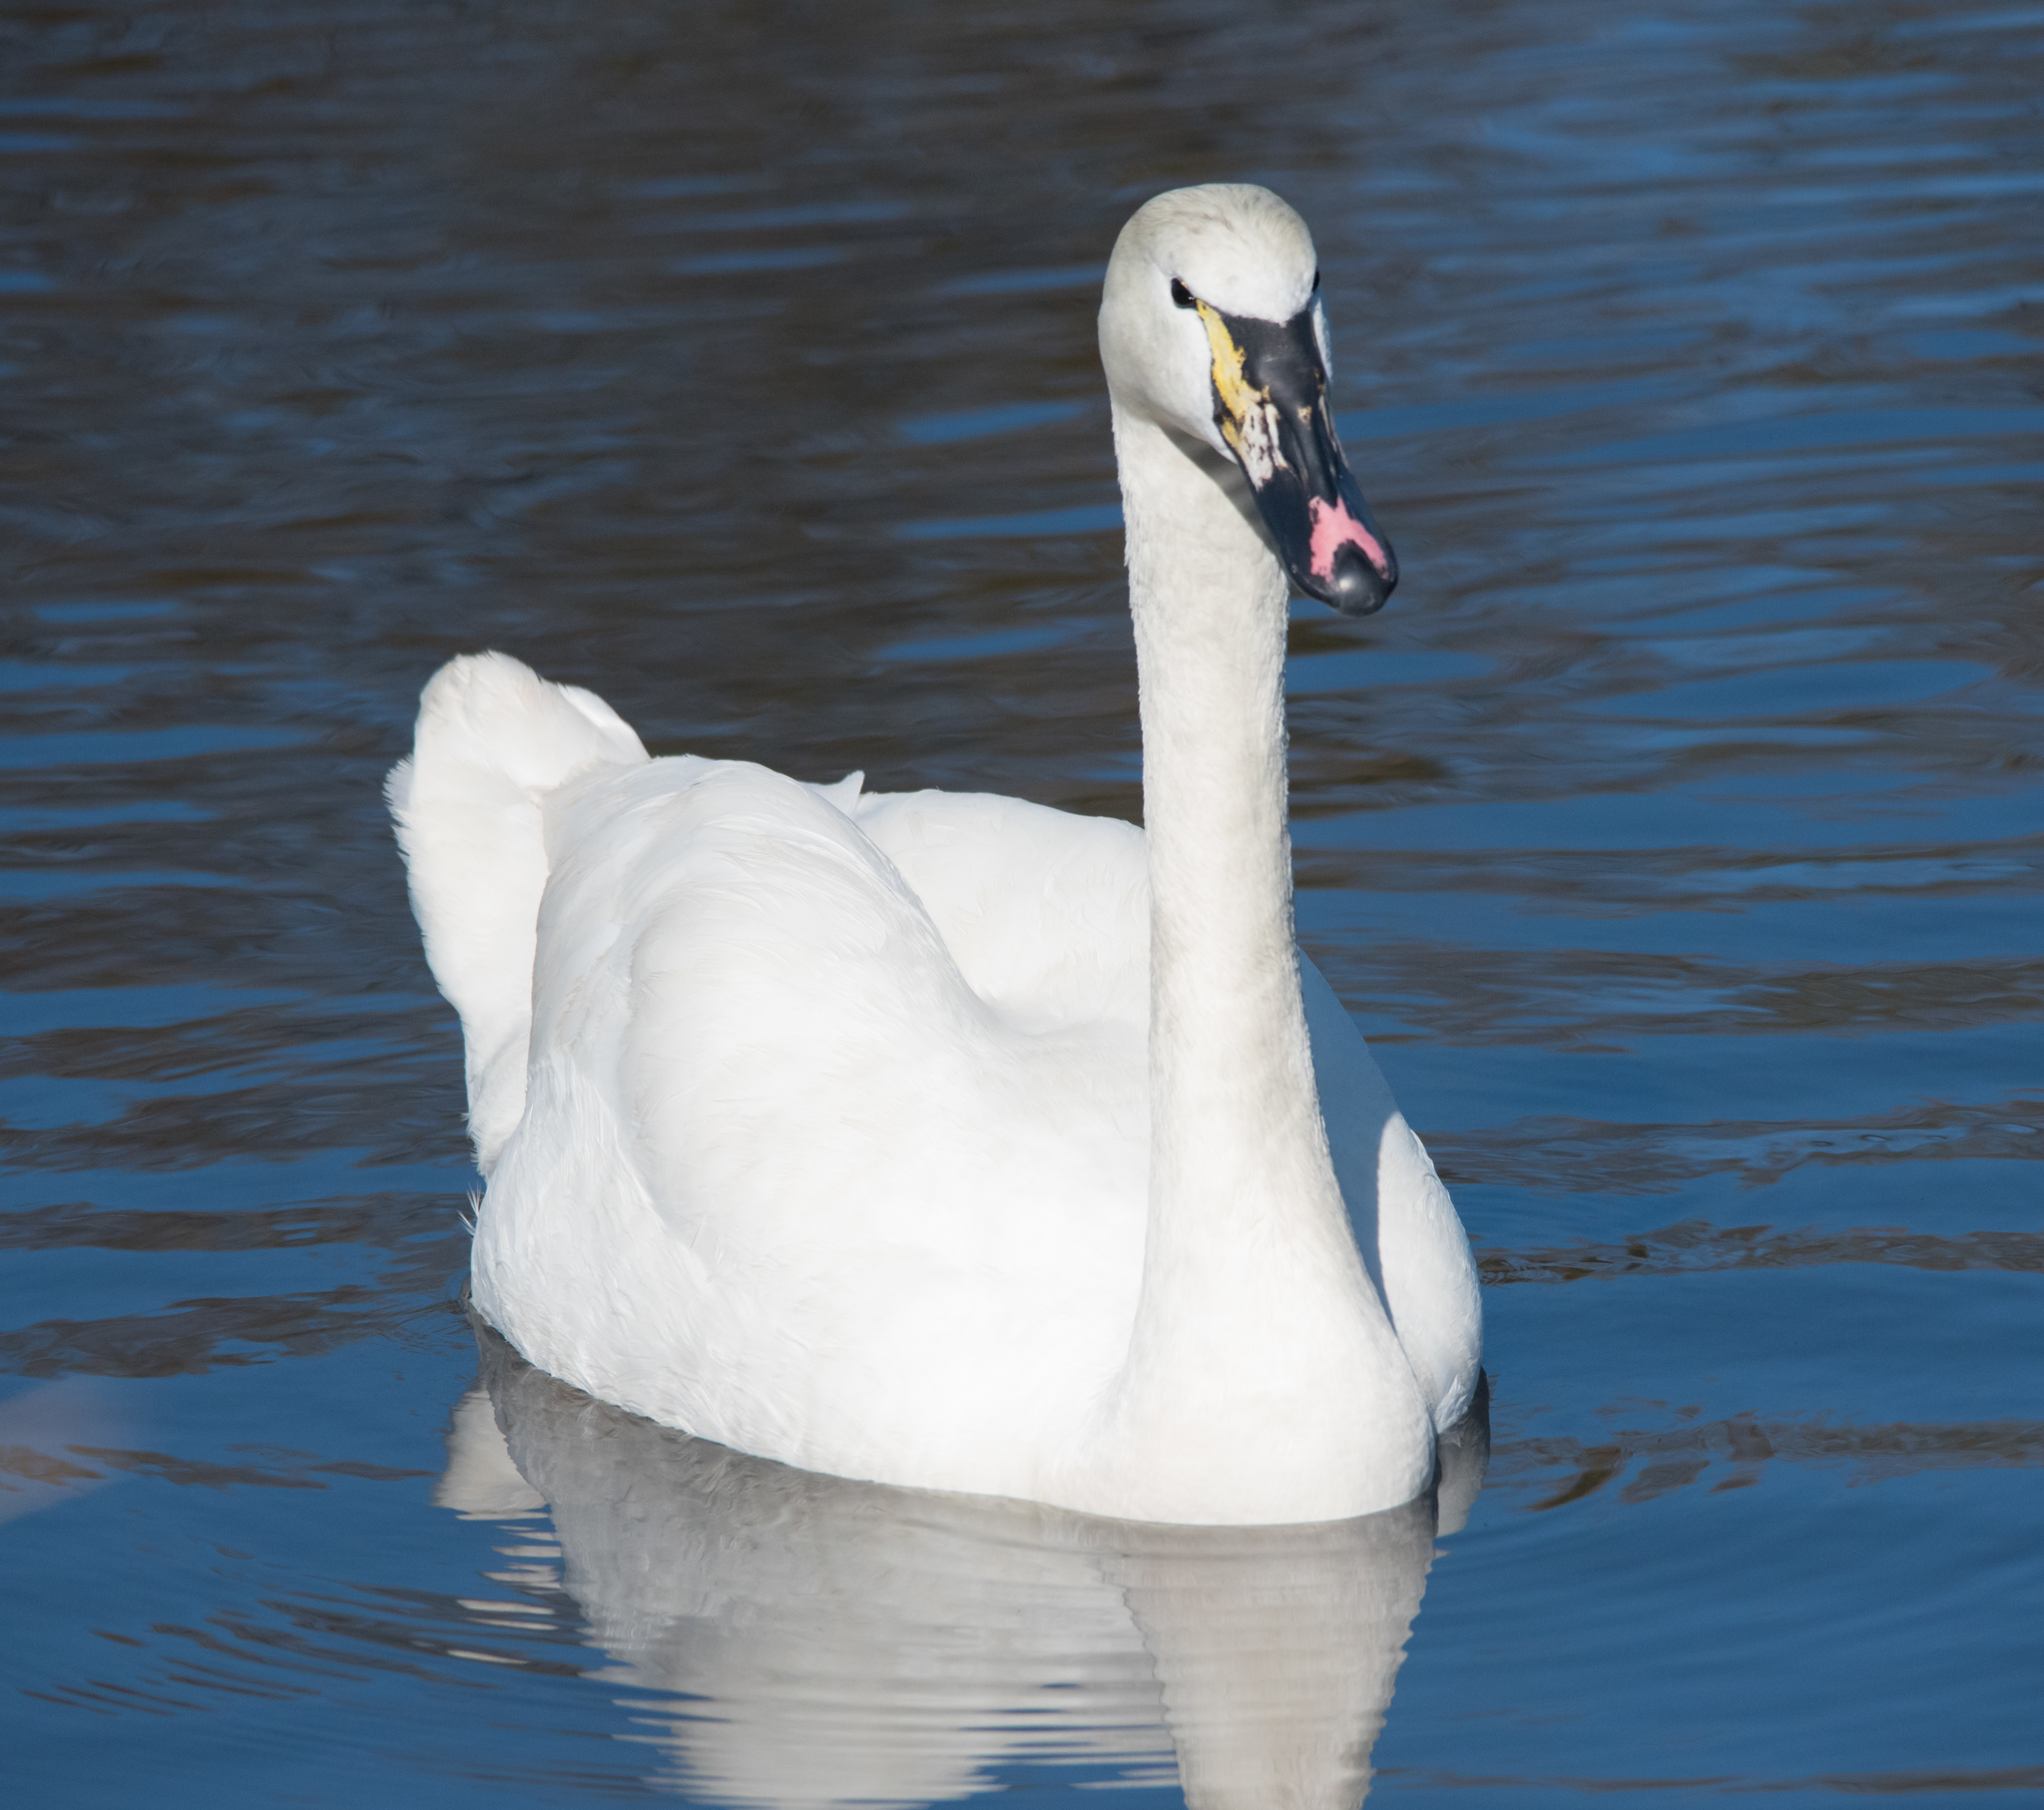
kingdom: Animalia
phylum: Chordata
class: Aves
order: Anseriformes
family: Anatidae
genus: Cygnus
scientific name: Cygnus
